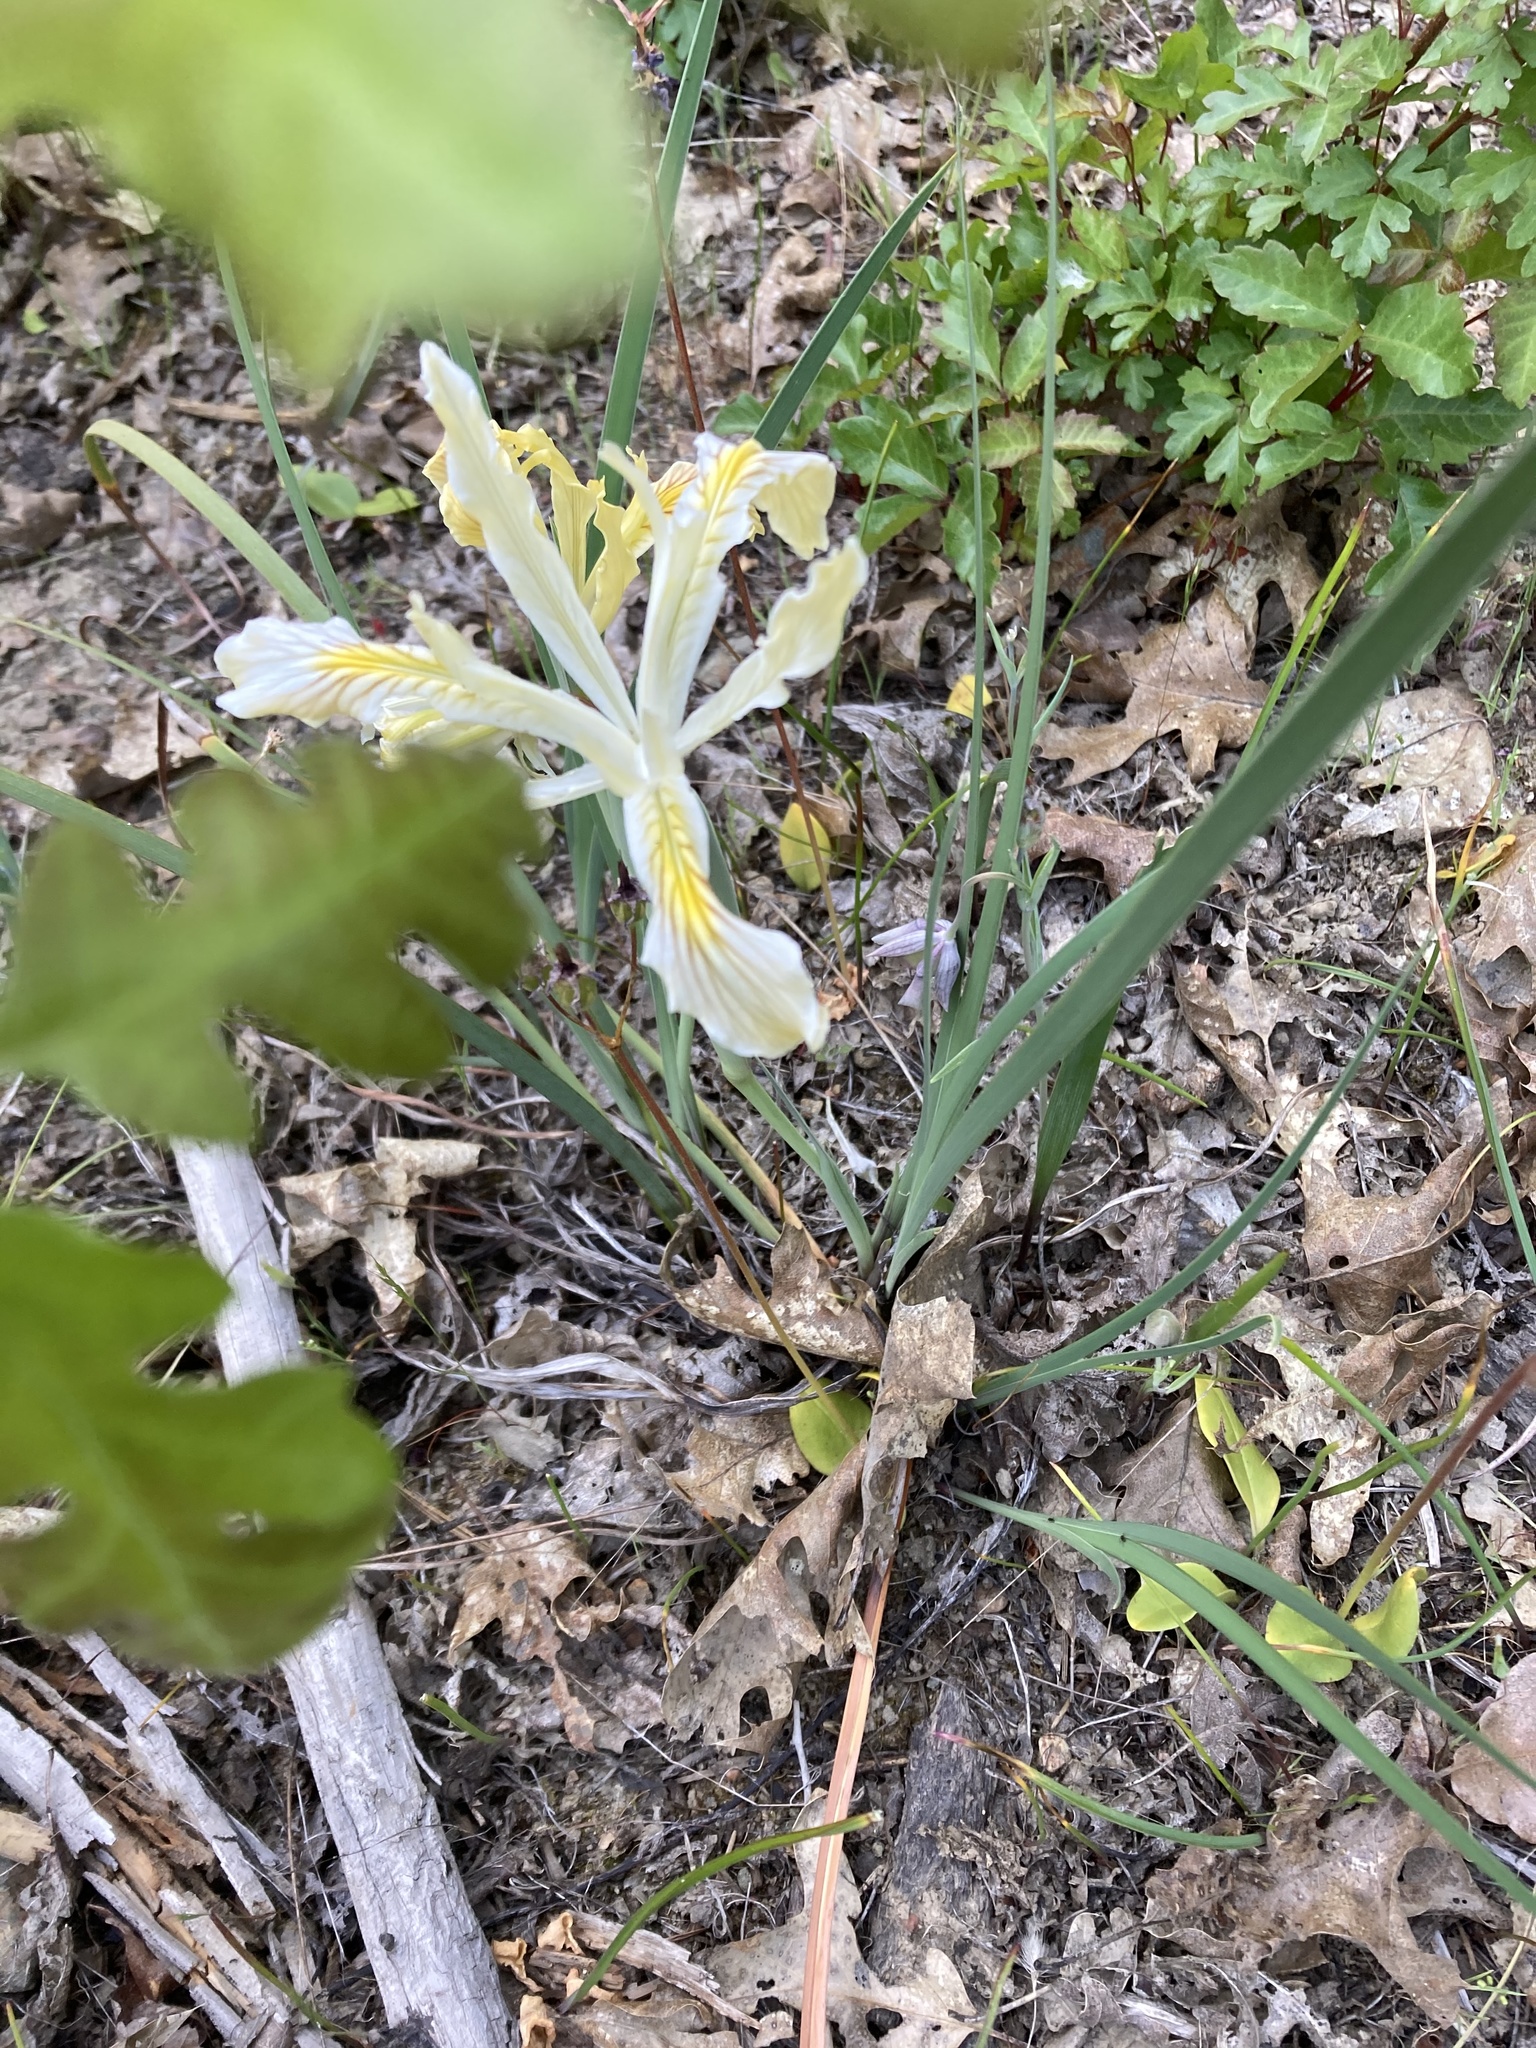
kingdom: Plantae
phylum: Tracheophyta
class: Liliopsida
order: Asparagales
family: Iridaceae
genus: Iris
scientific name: Iris innominata
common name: Del norte county iris
